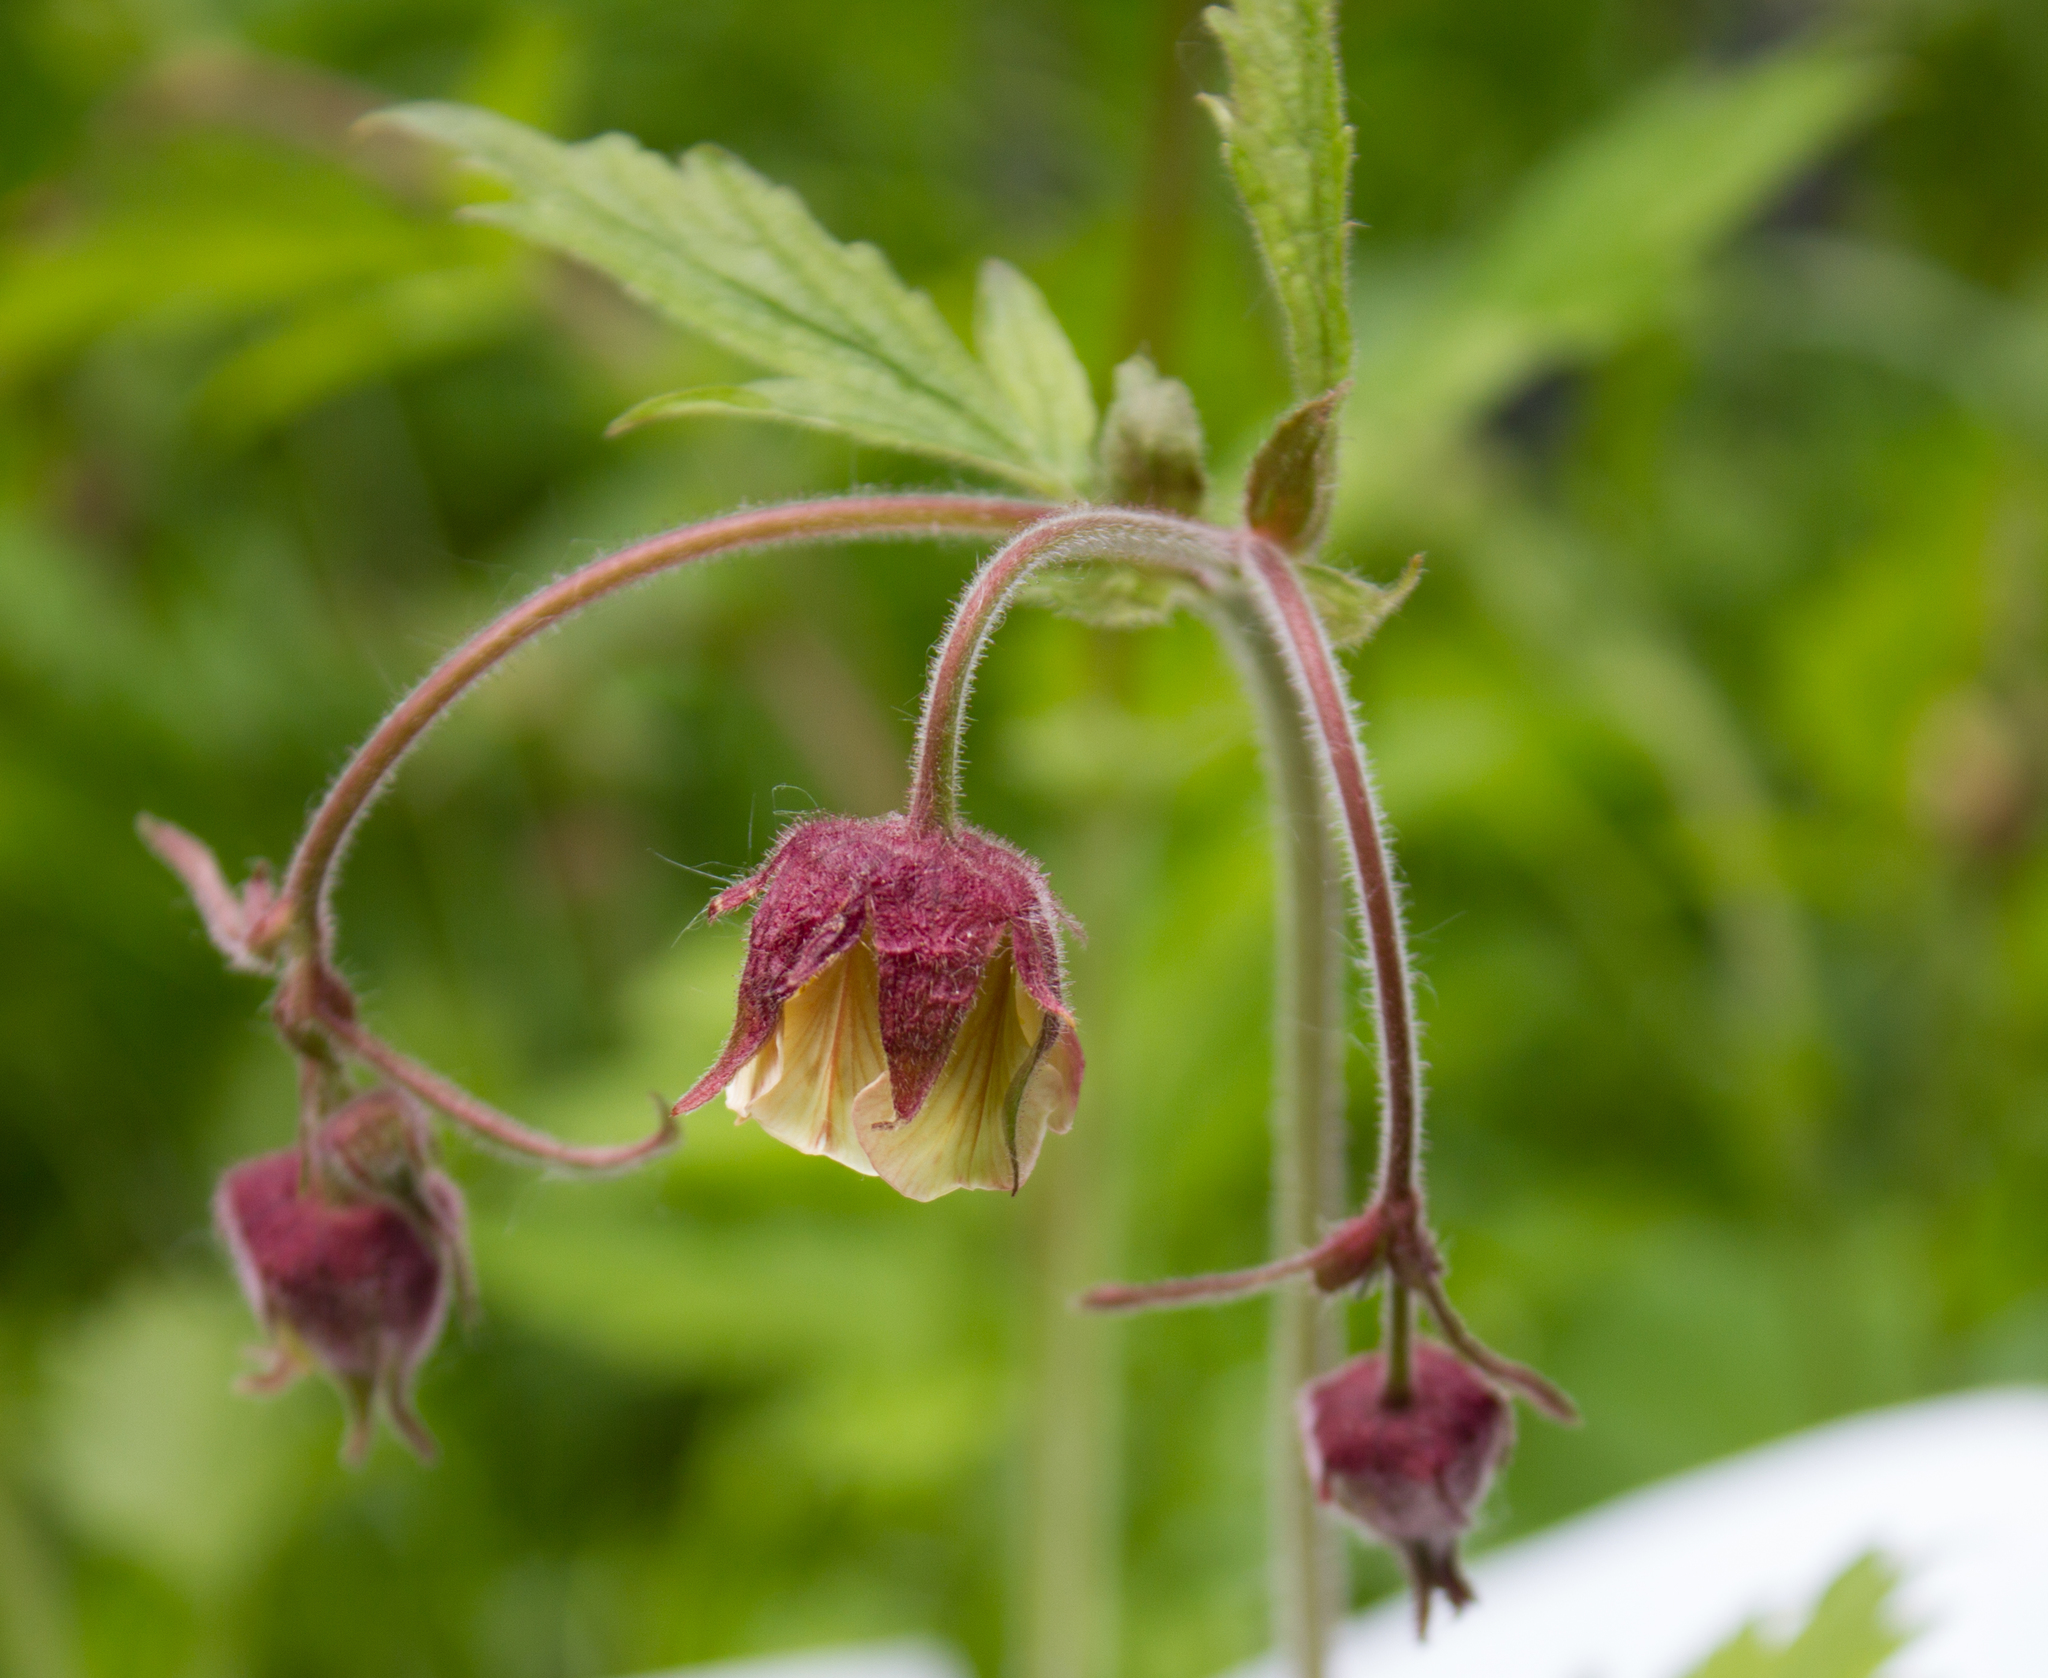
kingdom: Plantae
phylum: Tracheophyta
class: Magnoliopsida
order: Rosales
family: Rosaceae
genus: Geum
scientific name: Geum rivale
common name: Water avens
